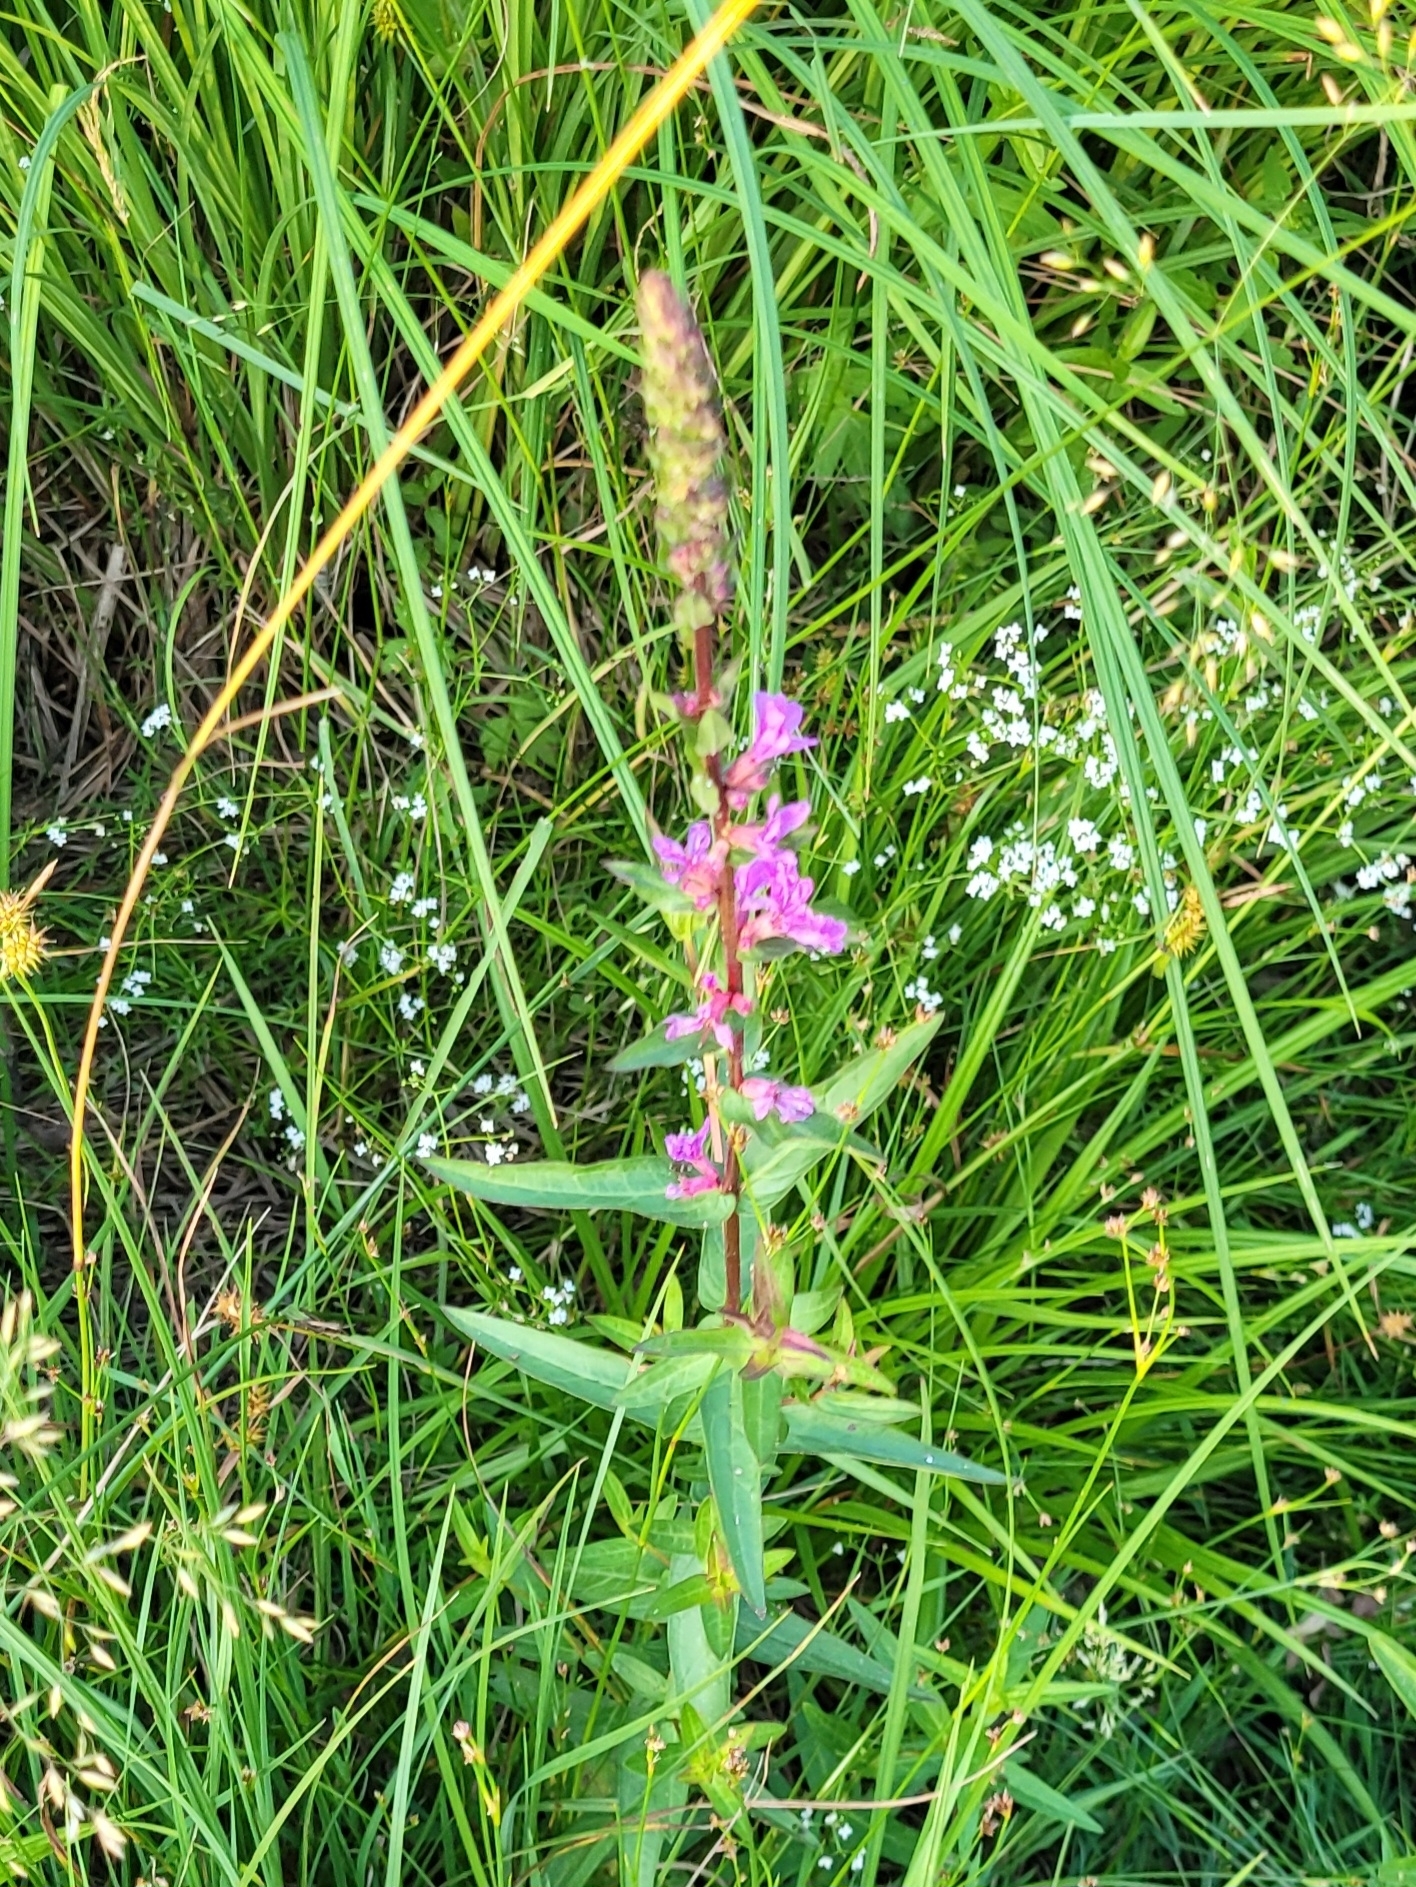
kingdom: Plantae
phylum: Tracheophyta
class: Magnoliopsida
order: Myrtales
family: Lythraceae
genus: Lythrum
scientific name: Lythrum salicaria
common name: Purple loosestrife
